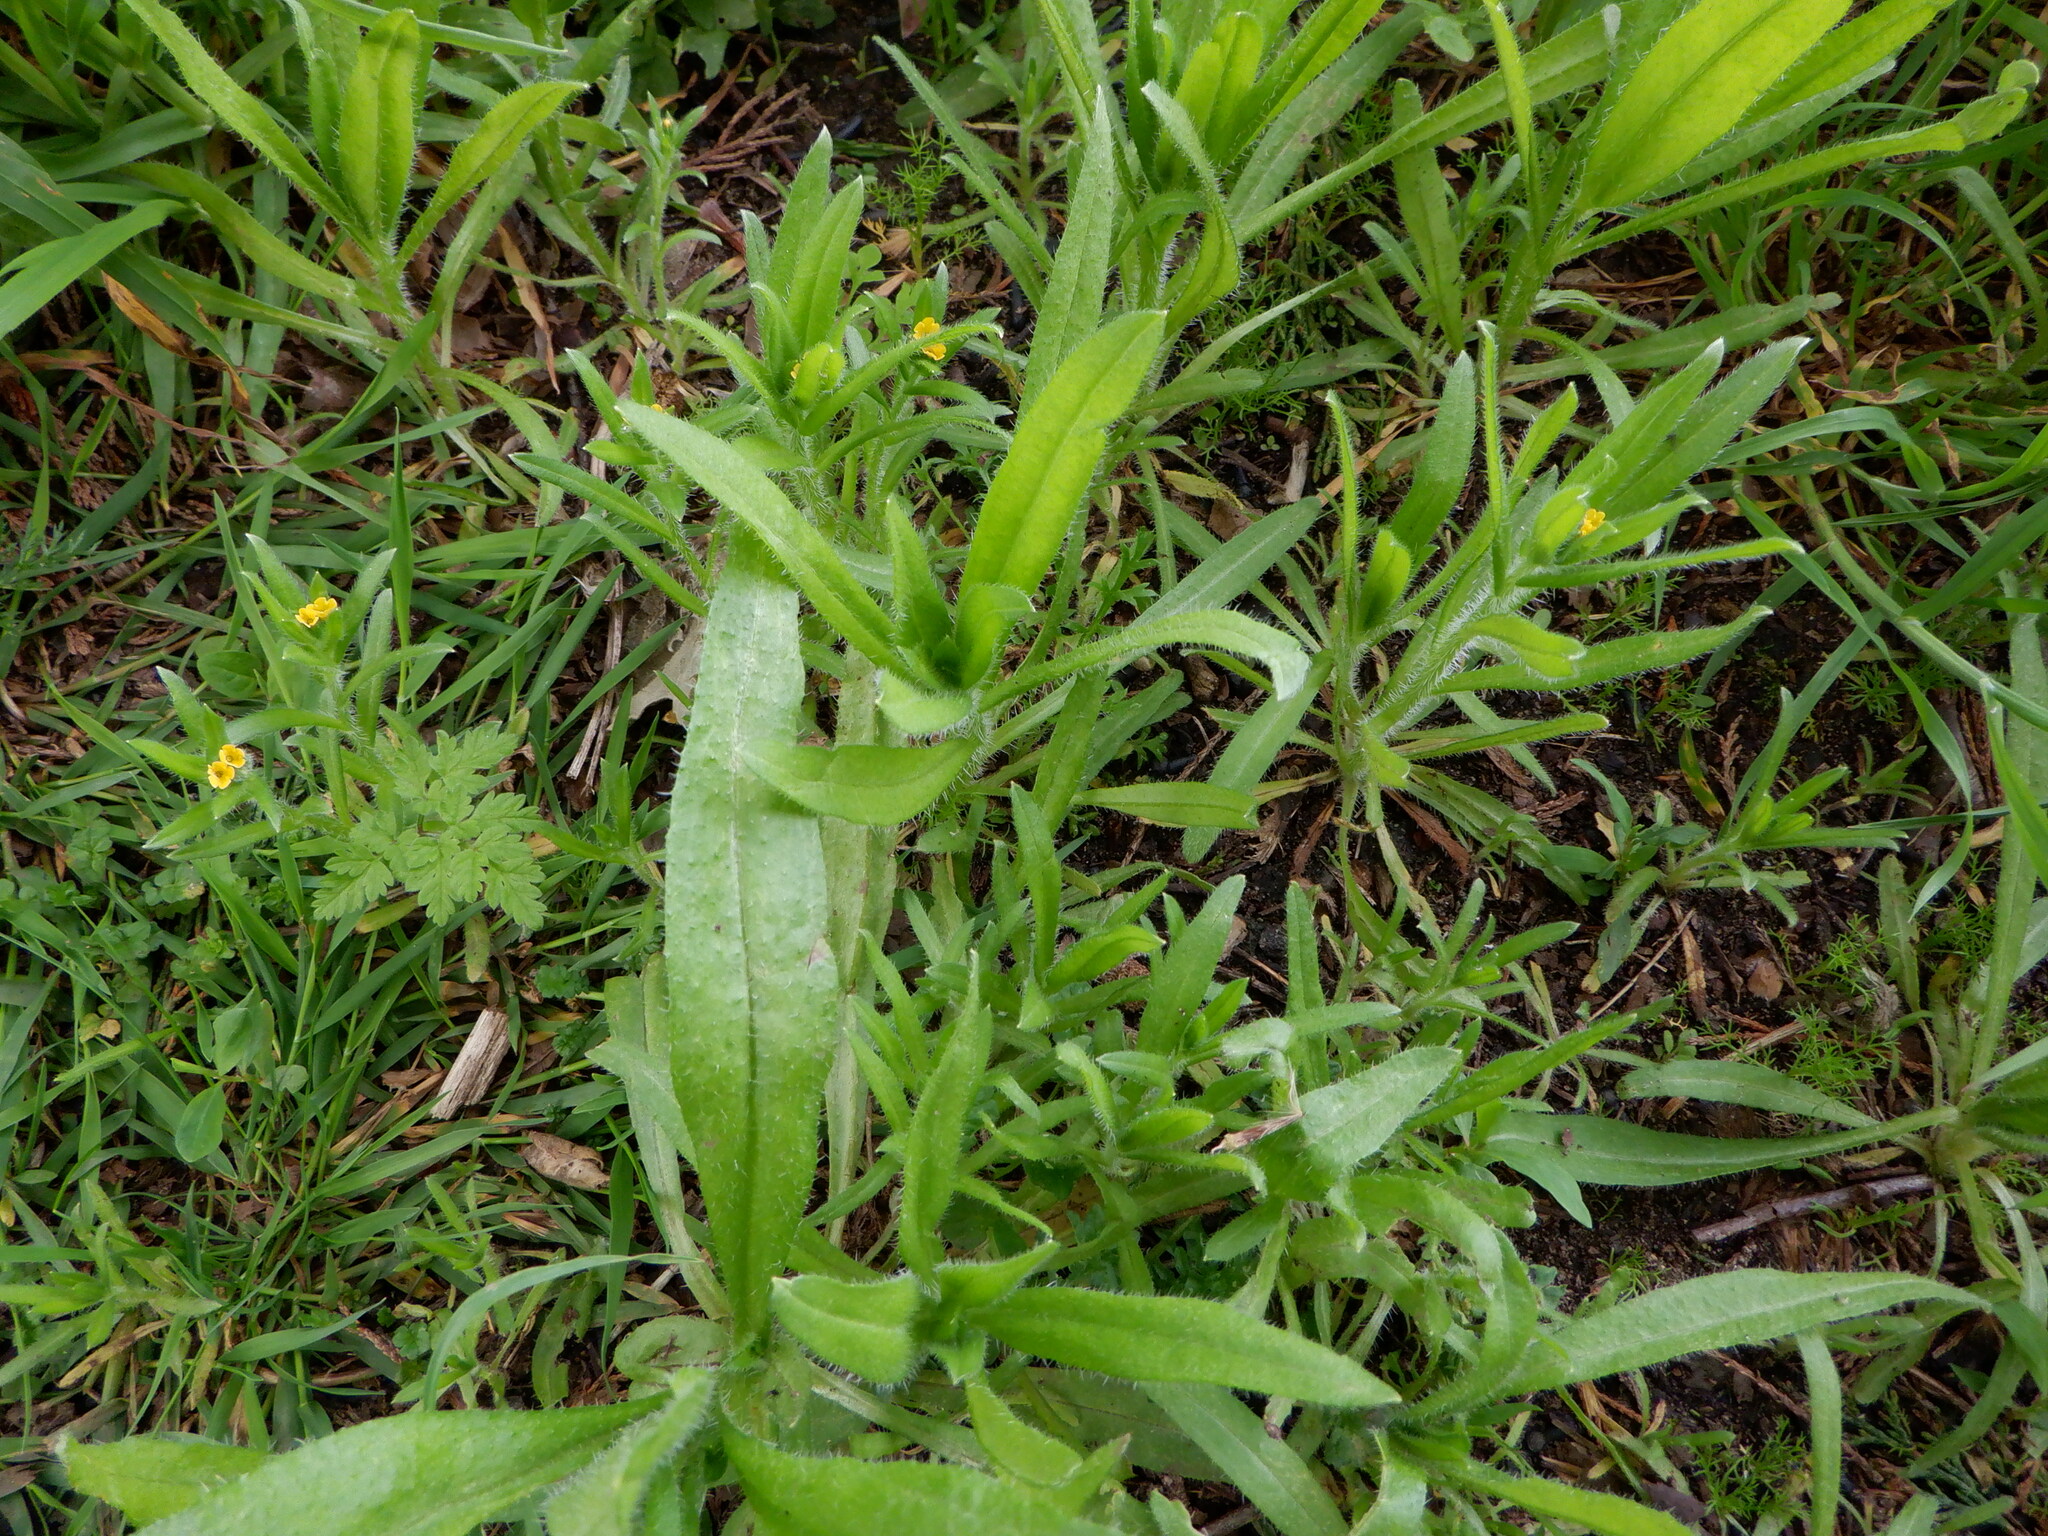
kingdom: Plantae
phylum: Tracheophyta
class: Magnoliopsida
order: Boraginales
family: Boraginaceae
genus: Amsinckia
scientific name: Amsinckia menziesii
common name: Menzies' fiddleneck
